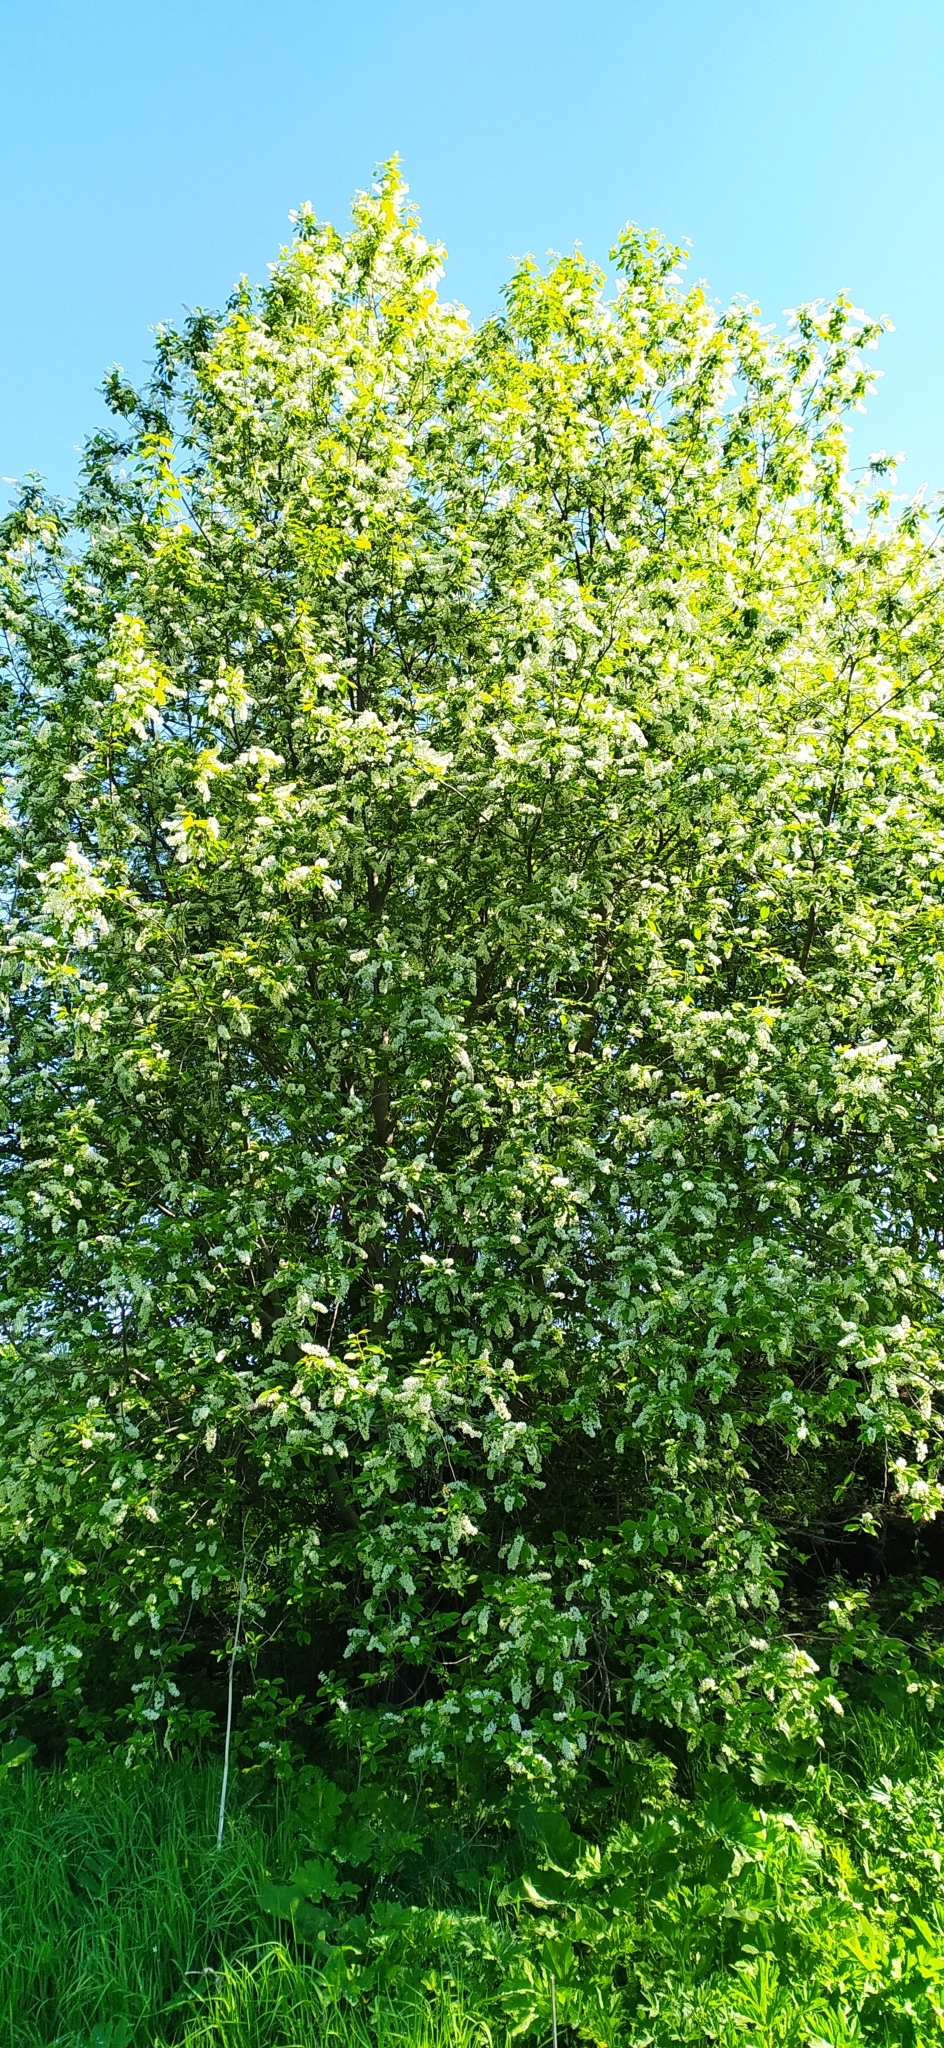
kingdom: Plantae
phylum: Tracheophyta
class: Magnoliopsida
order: Rosales
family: Rosaceae
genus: Prunus
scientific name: Prunus padus
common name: Bird cherry
